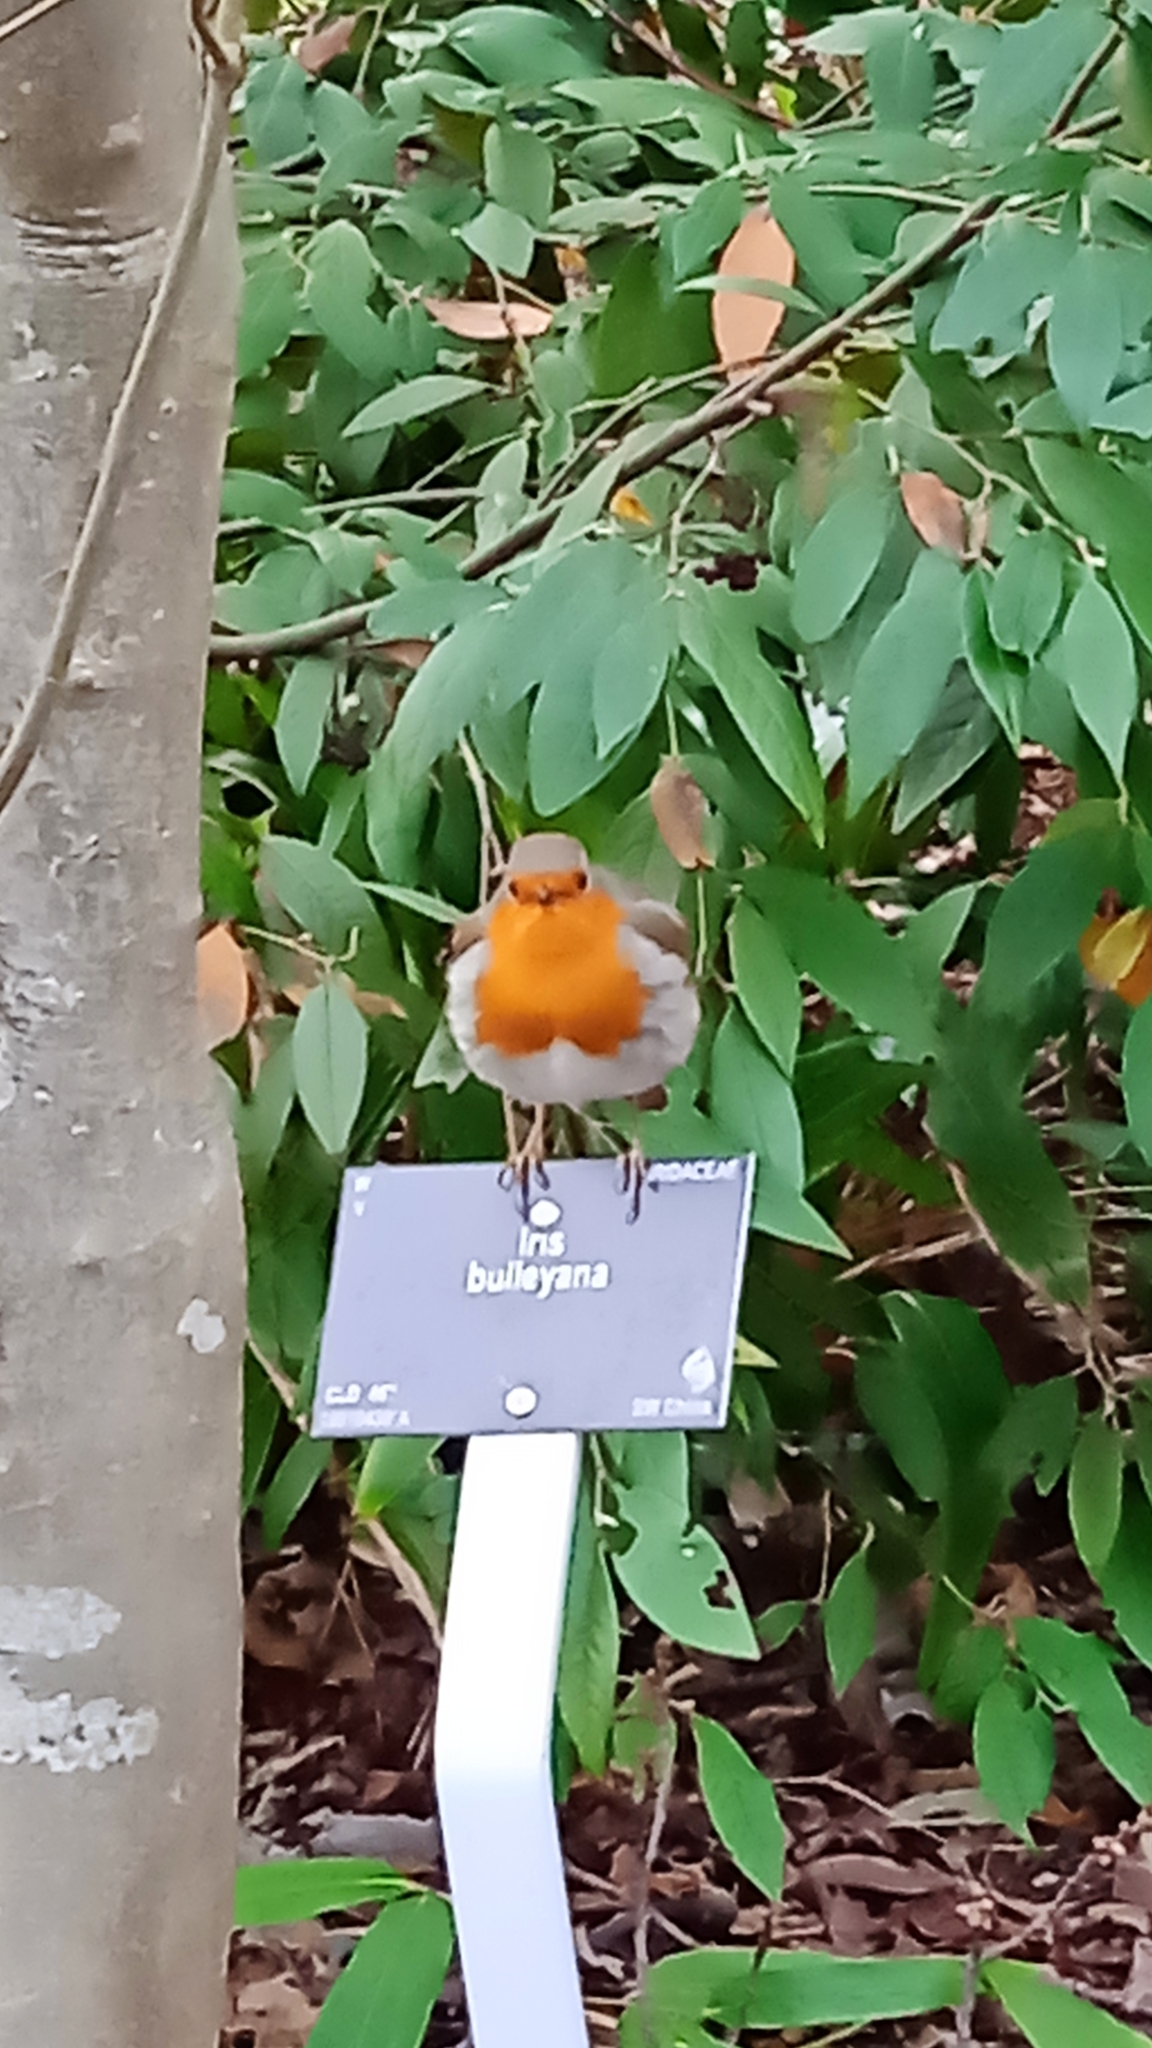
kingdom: Animalia
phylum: Chordata
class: Aves
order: Passeriformes
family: Muscicapidae
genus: Erithacus
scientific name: Erithacus rubecula
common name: European robin
